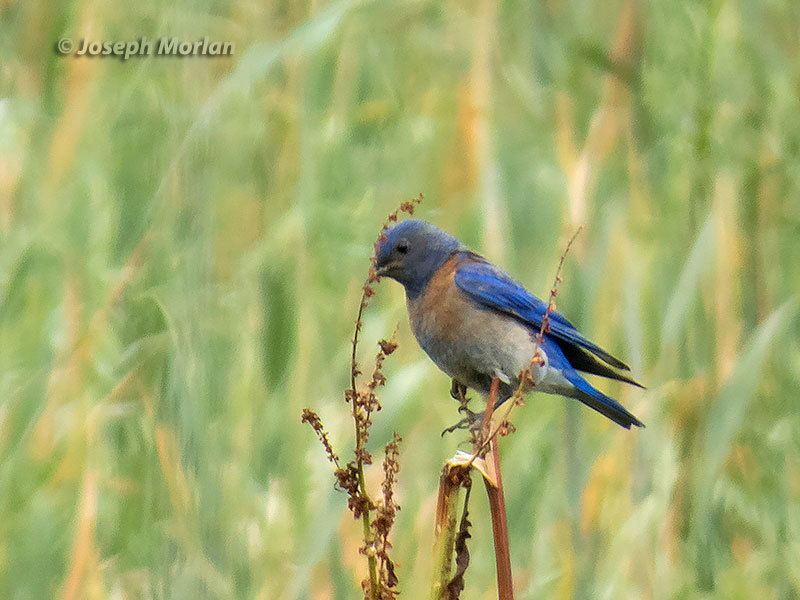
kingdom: Animalia
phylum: Chordata
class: Aves
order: Passeriformes
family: Turdidae
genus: Sialia
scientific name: Sialia mexicana
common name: Western bluebird
